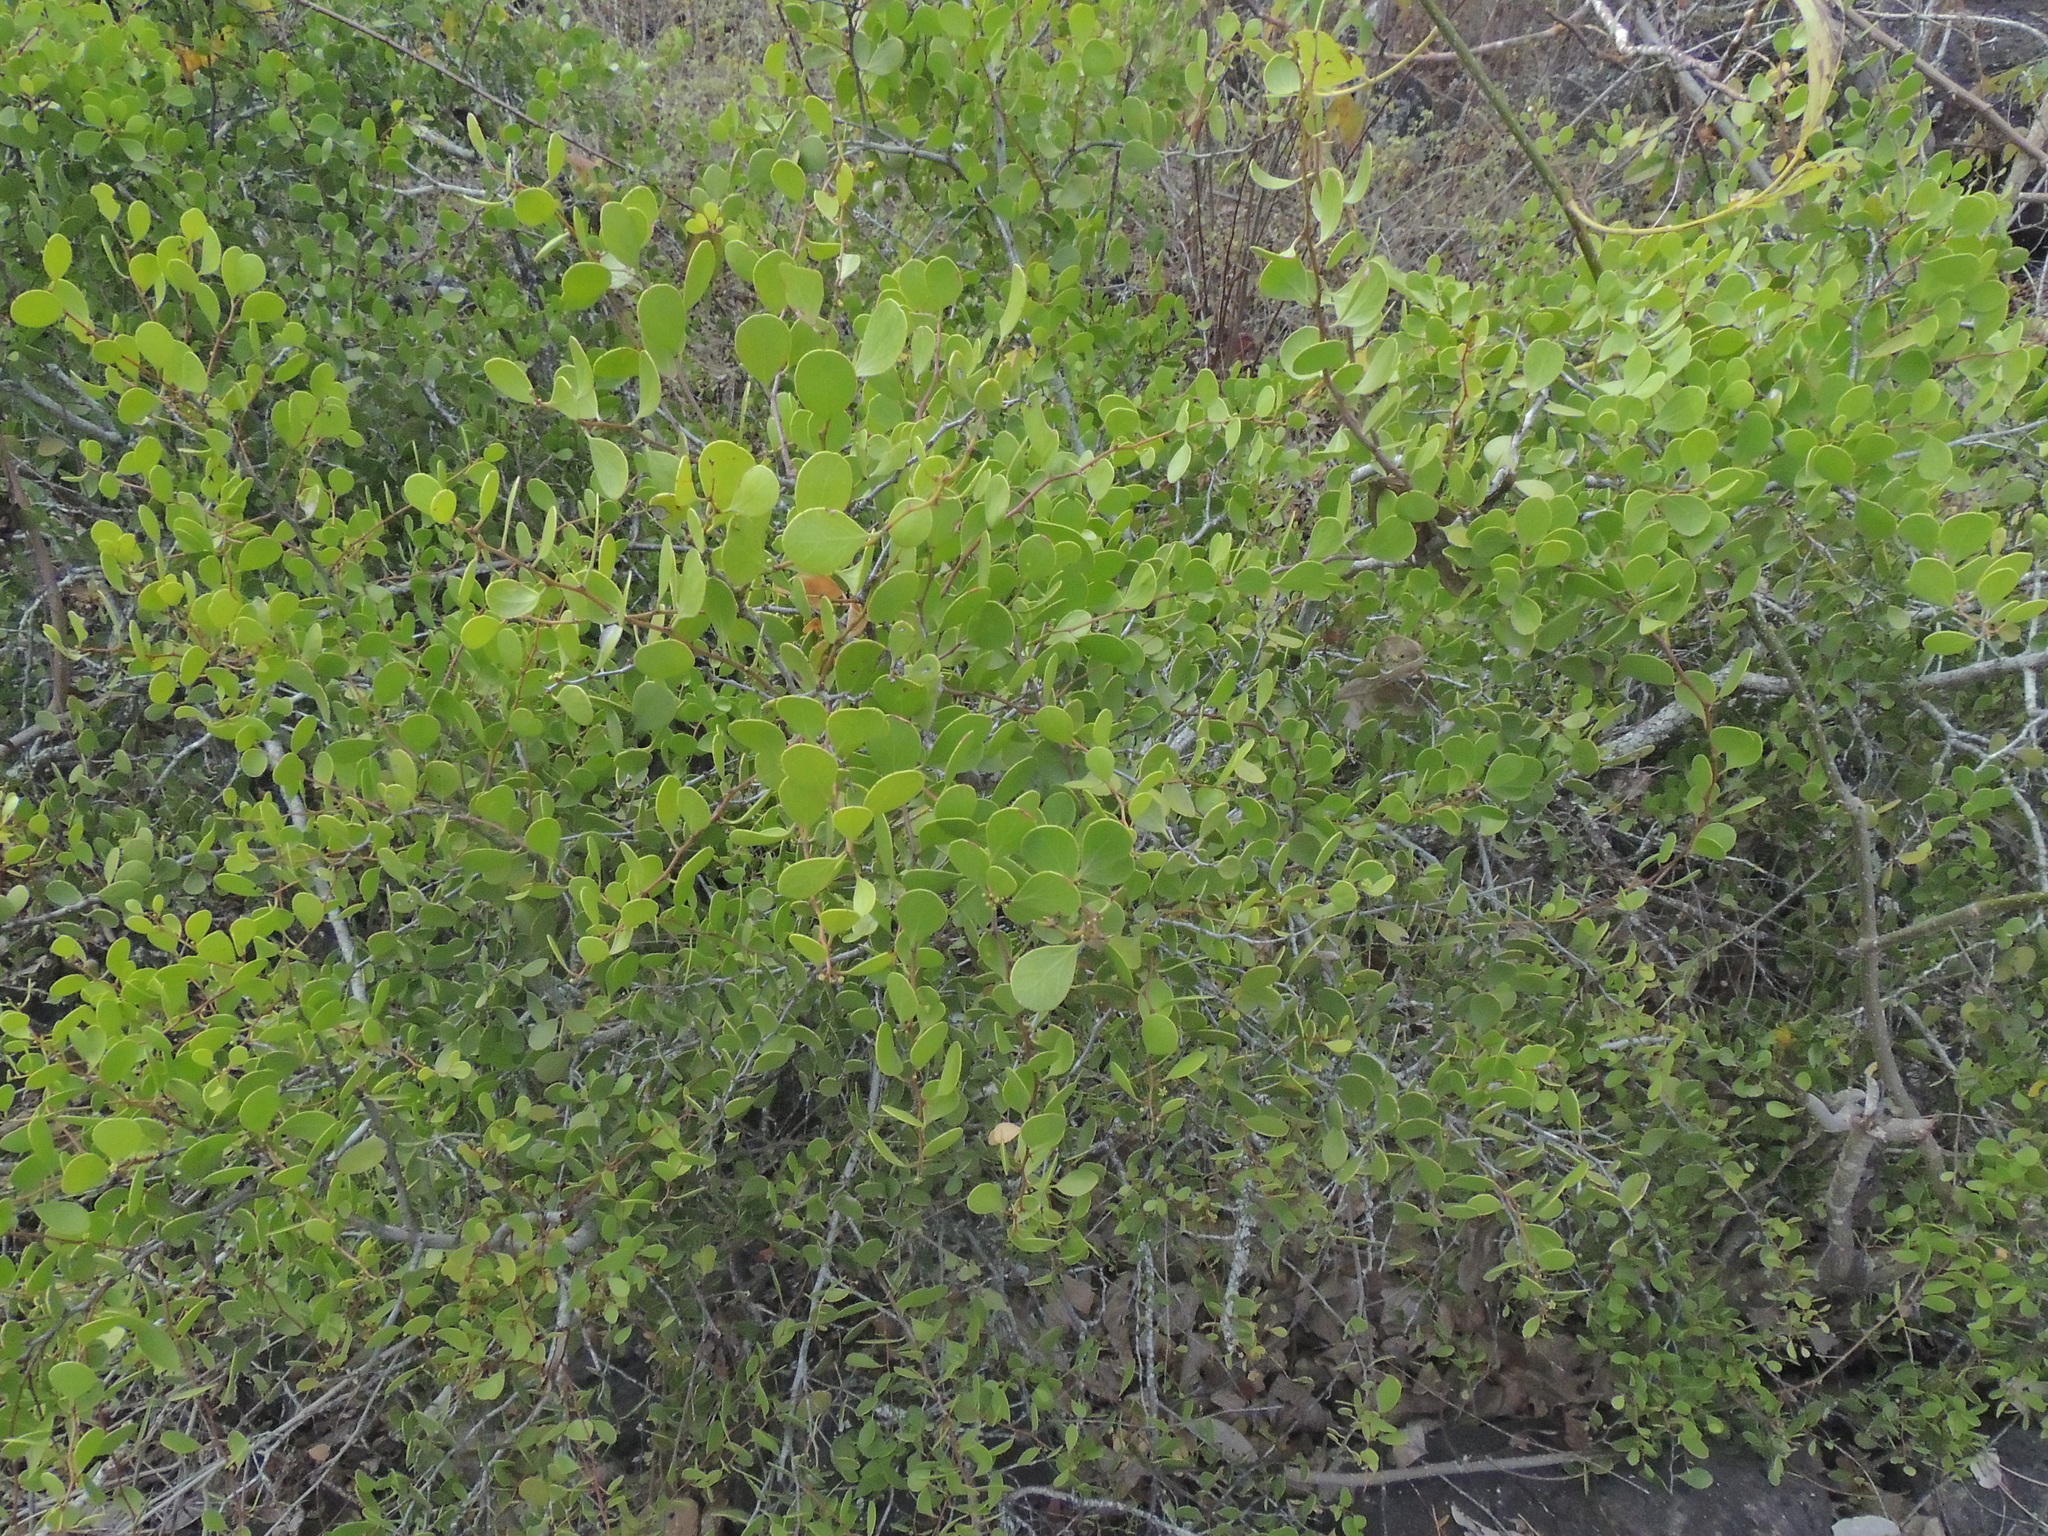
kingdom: Plantae
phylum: Tracheophyta
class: Magnoliopsida
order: Celastrales
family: Celastraceae
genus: Tricerma
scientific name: Tricerma octogonum
